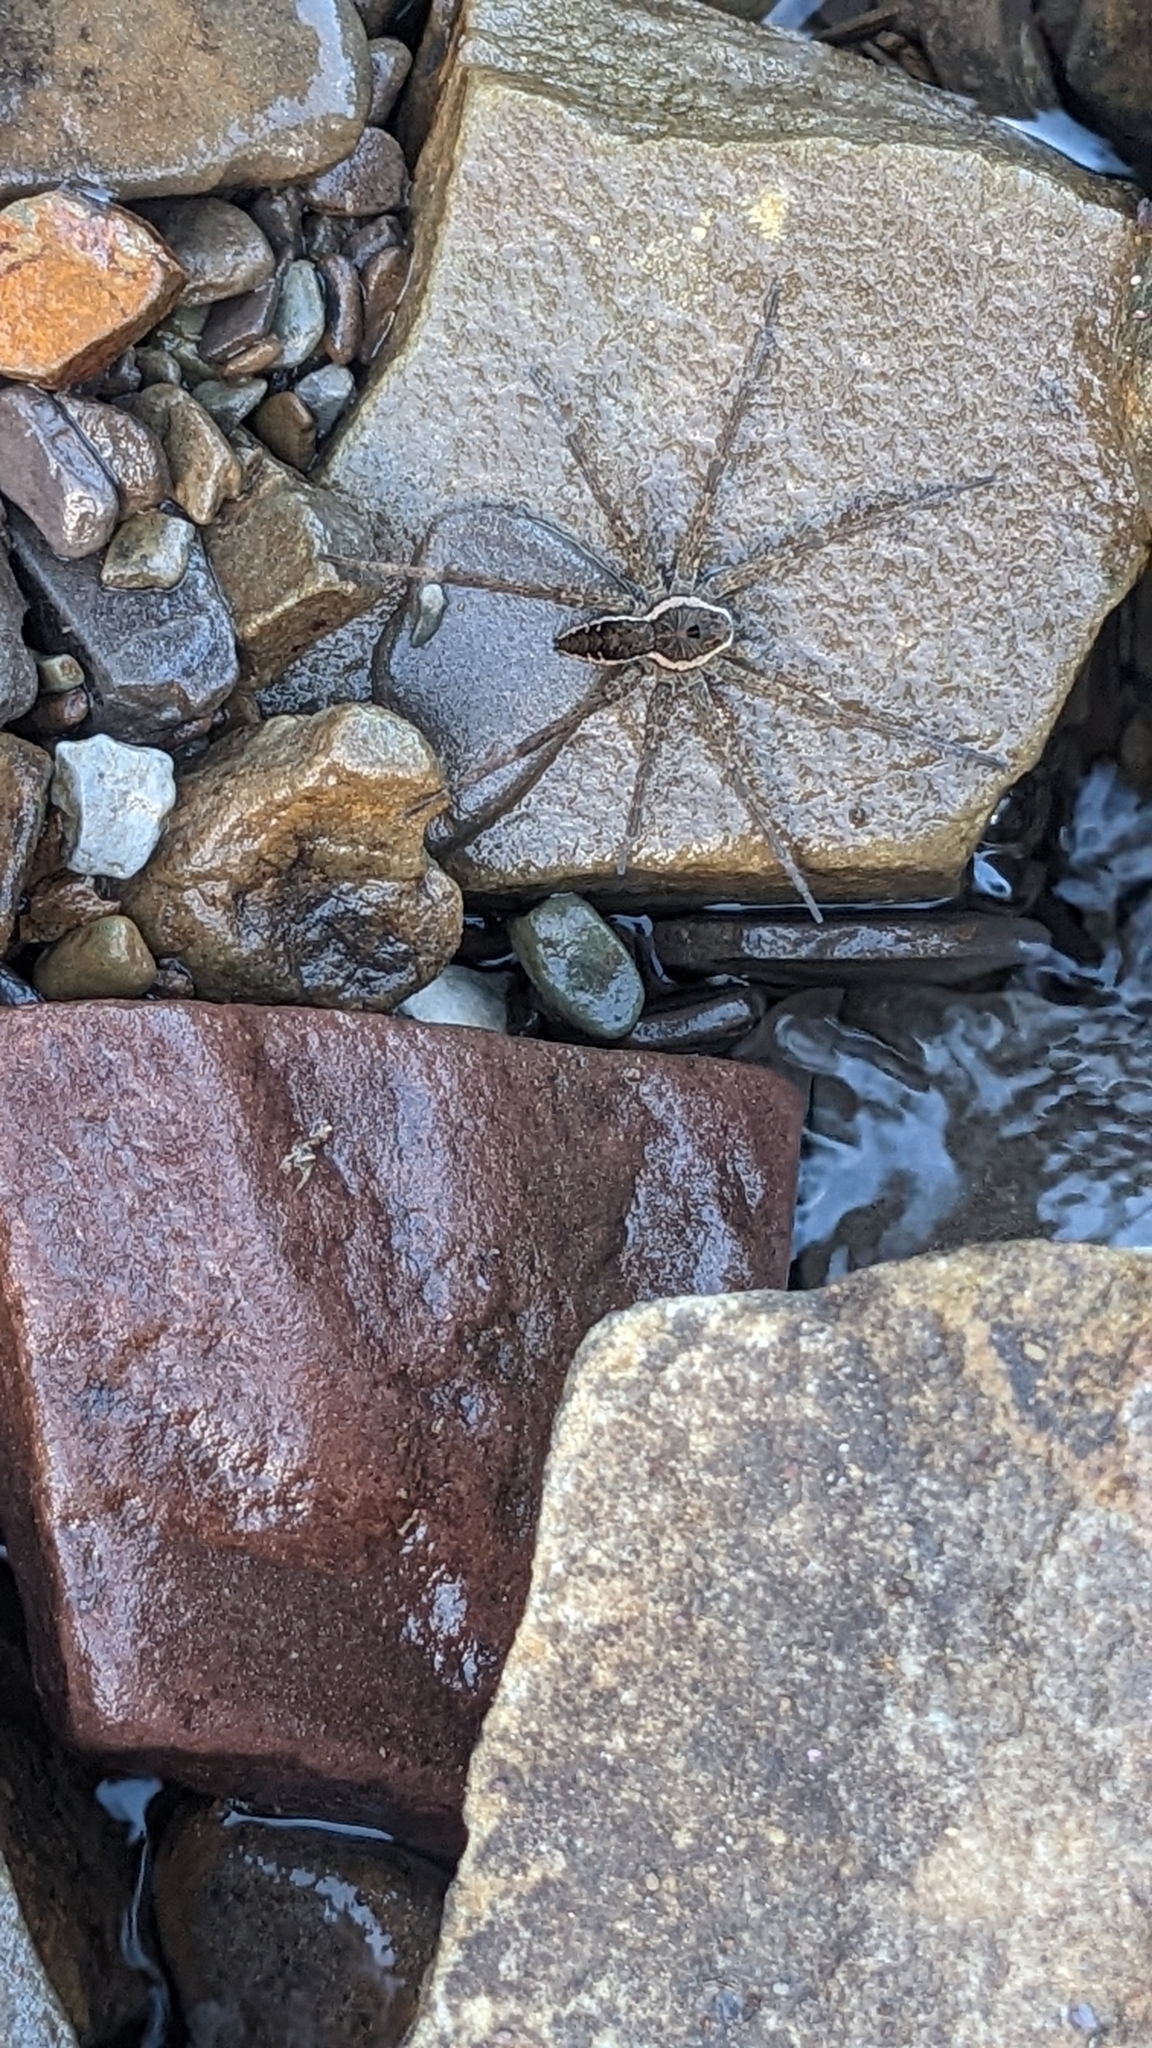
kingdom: Animalia
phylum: Arthropoda
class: Arachnida
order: Araneae
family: Pisauridae
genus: Dolomedes
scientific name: Dolomedes vittatus
